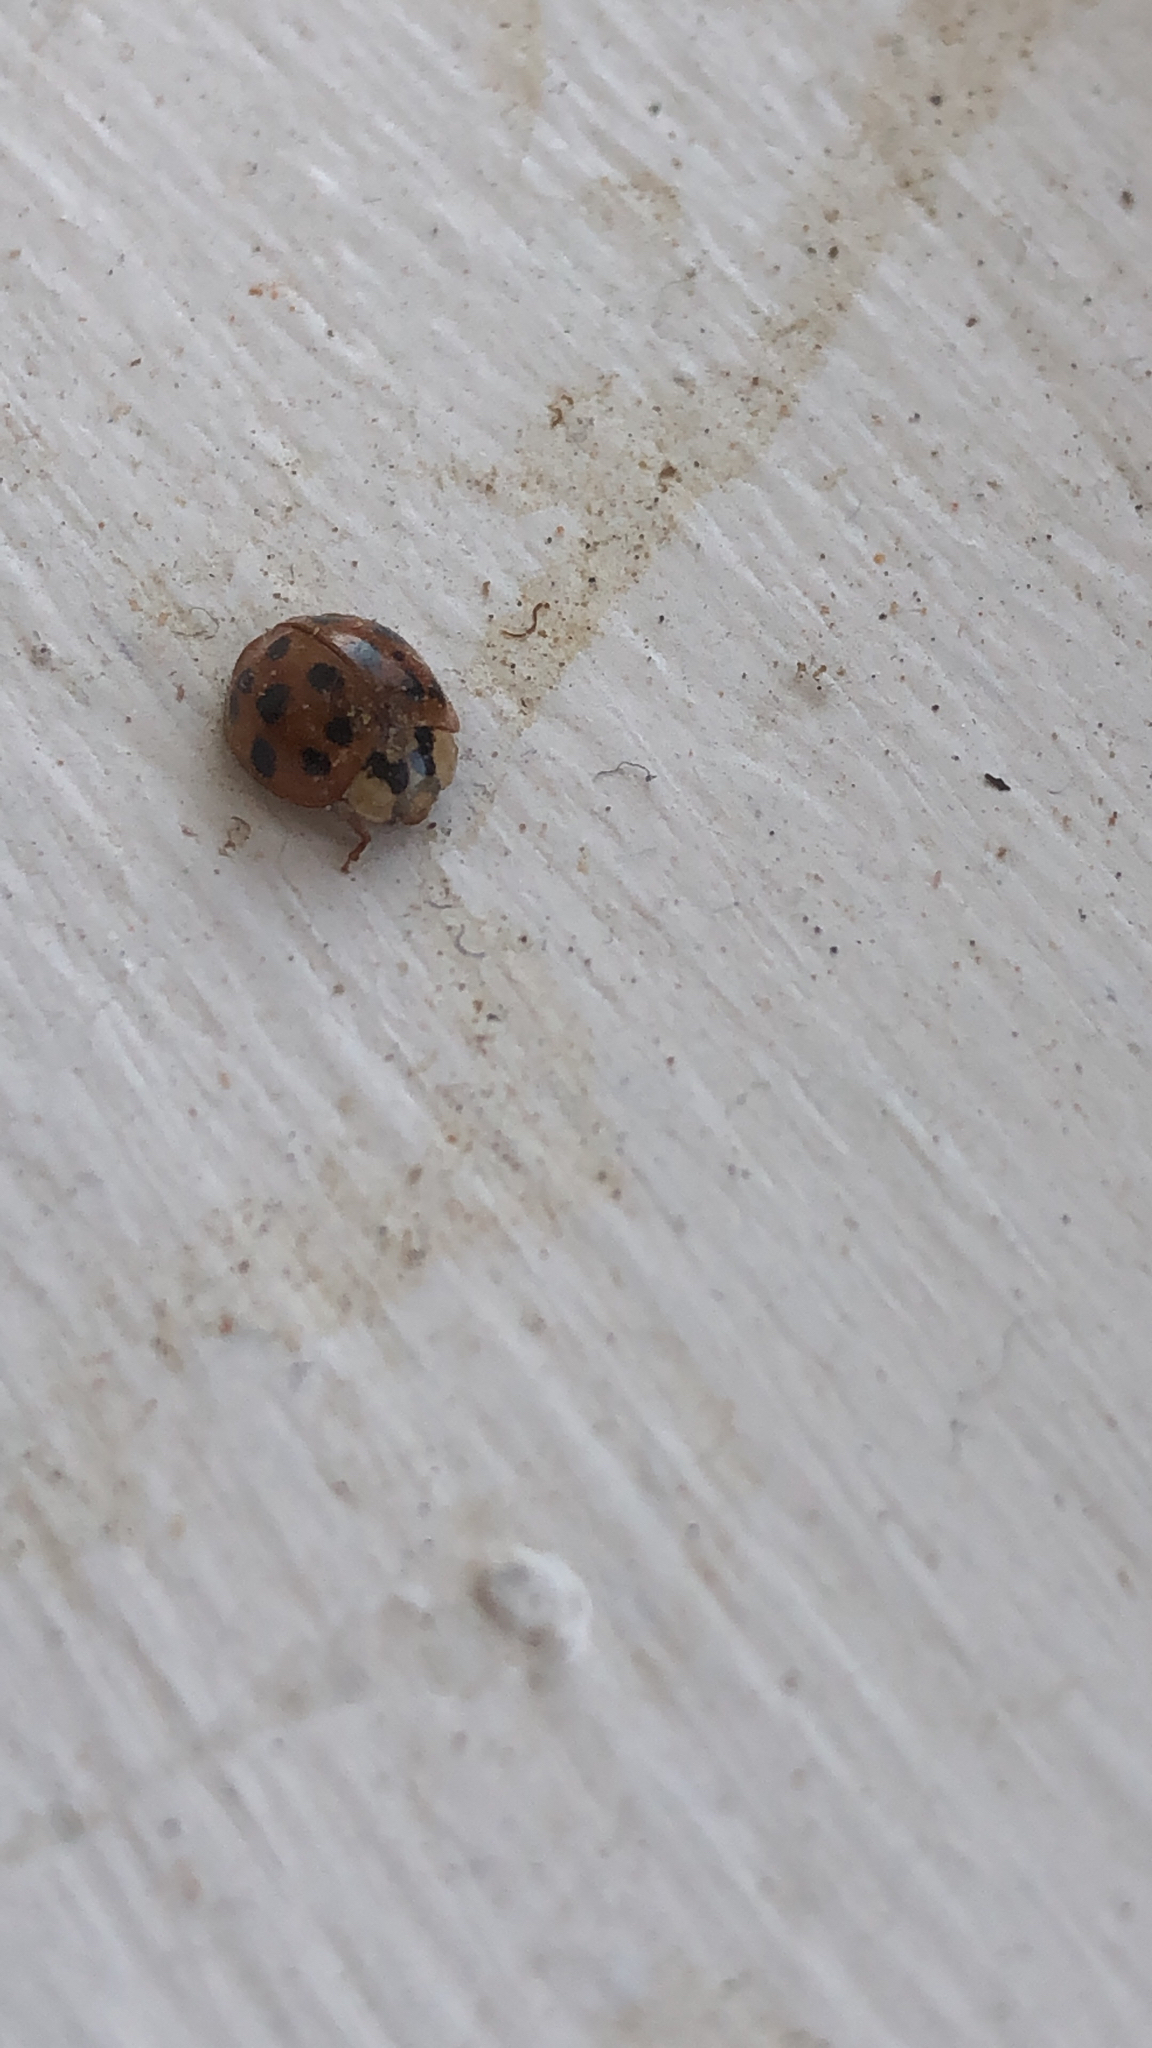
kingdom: Animalia
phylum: Arthropoda
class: Insecta
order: Coleoptera
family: Coccinellidae
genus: Harmonia
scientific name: Harmonia axyridis
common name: Harlequin ladybird
